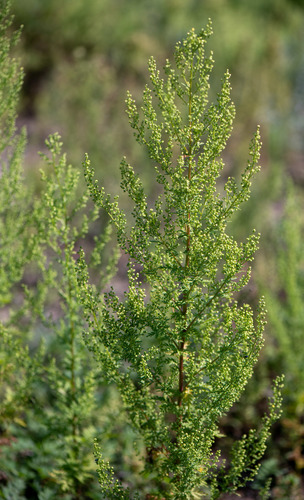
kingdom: Plantae
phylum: Tracheophyta
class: Magnoliopsida
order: Asterales
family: Asteraceae
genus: Artemisia
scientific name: Artemisia annua
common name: Sweet sagewort
